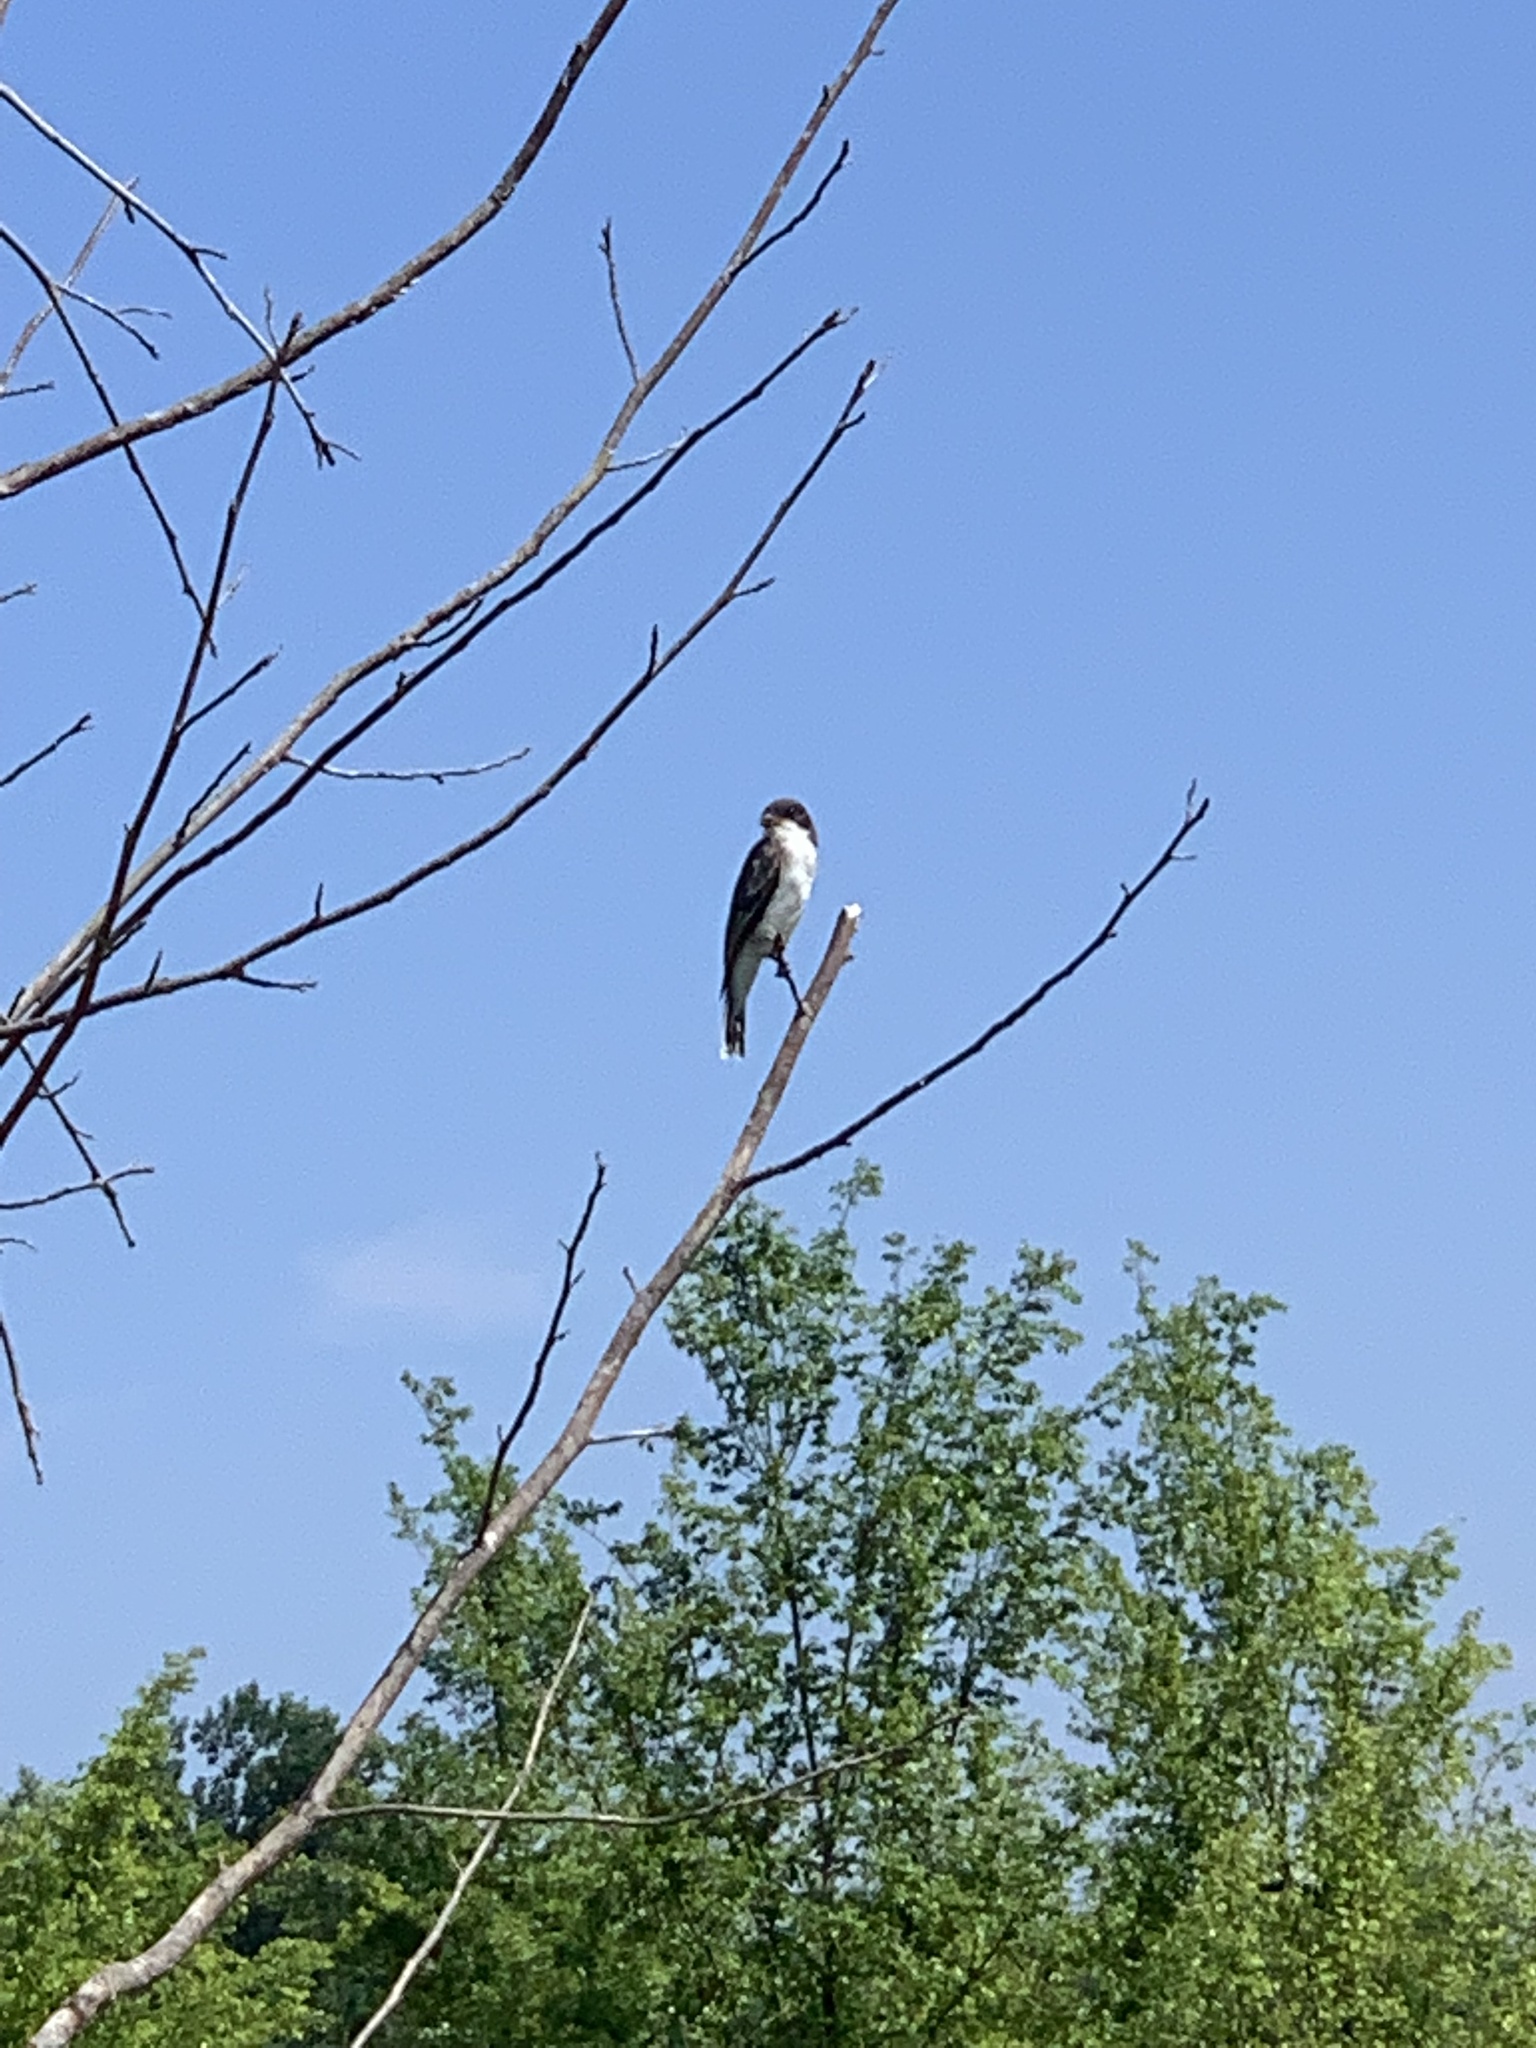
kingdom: Animalia
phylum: Chordata
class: Aves
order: Passeriformes
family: Tyrannidae
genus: Tyrannus
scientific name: Tyrannus tyrannus
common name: Eastern kingbird
